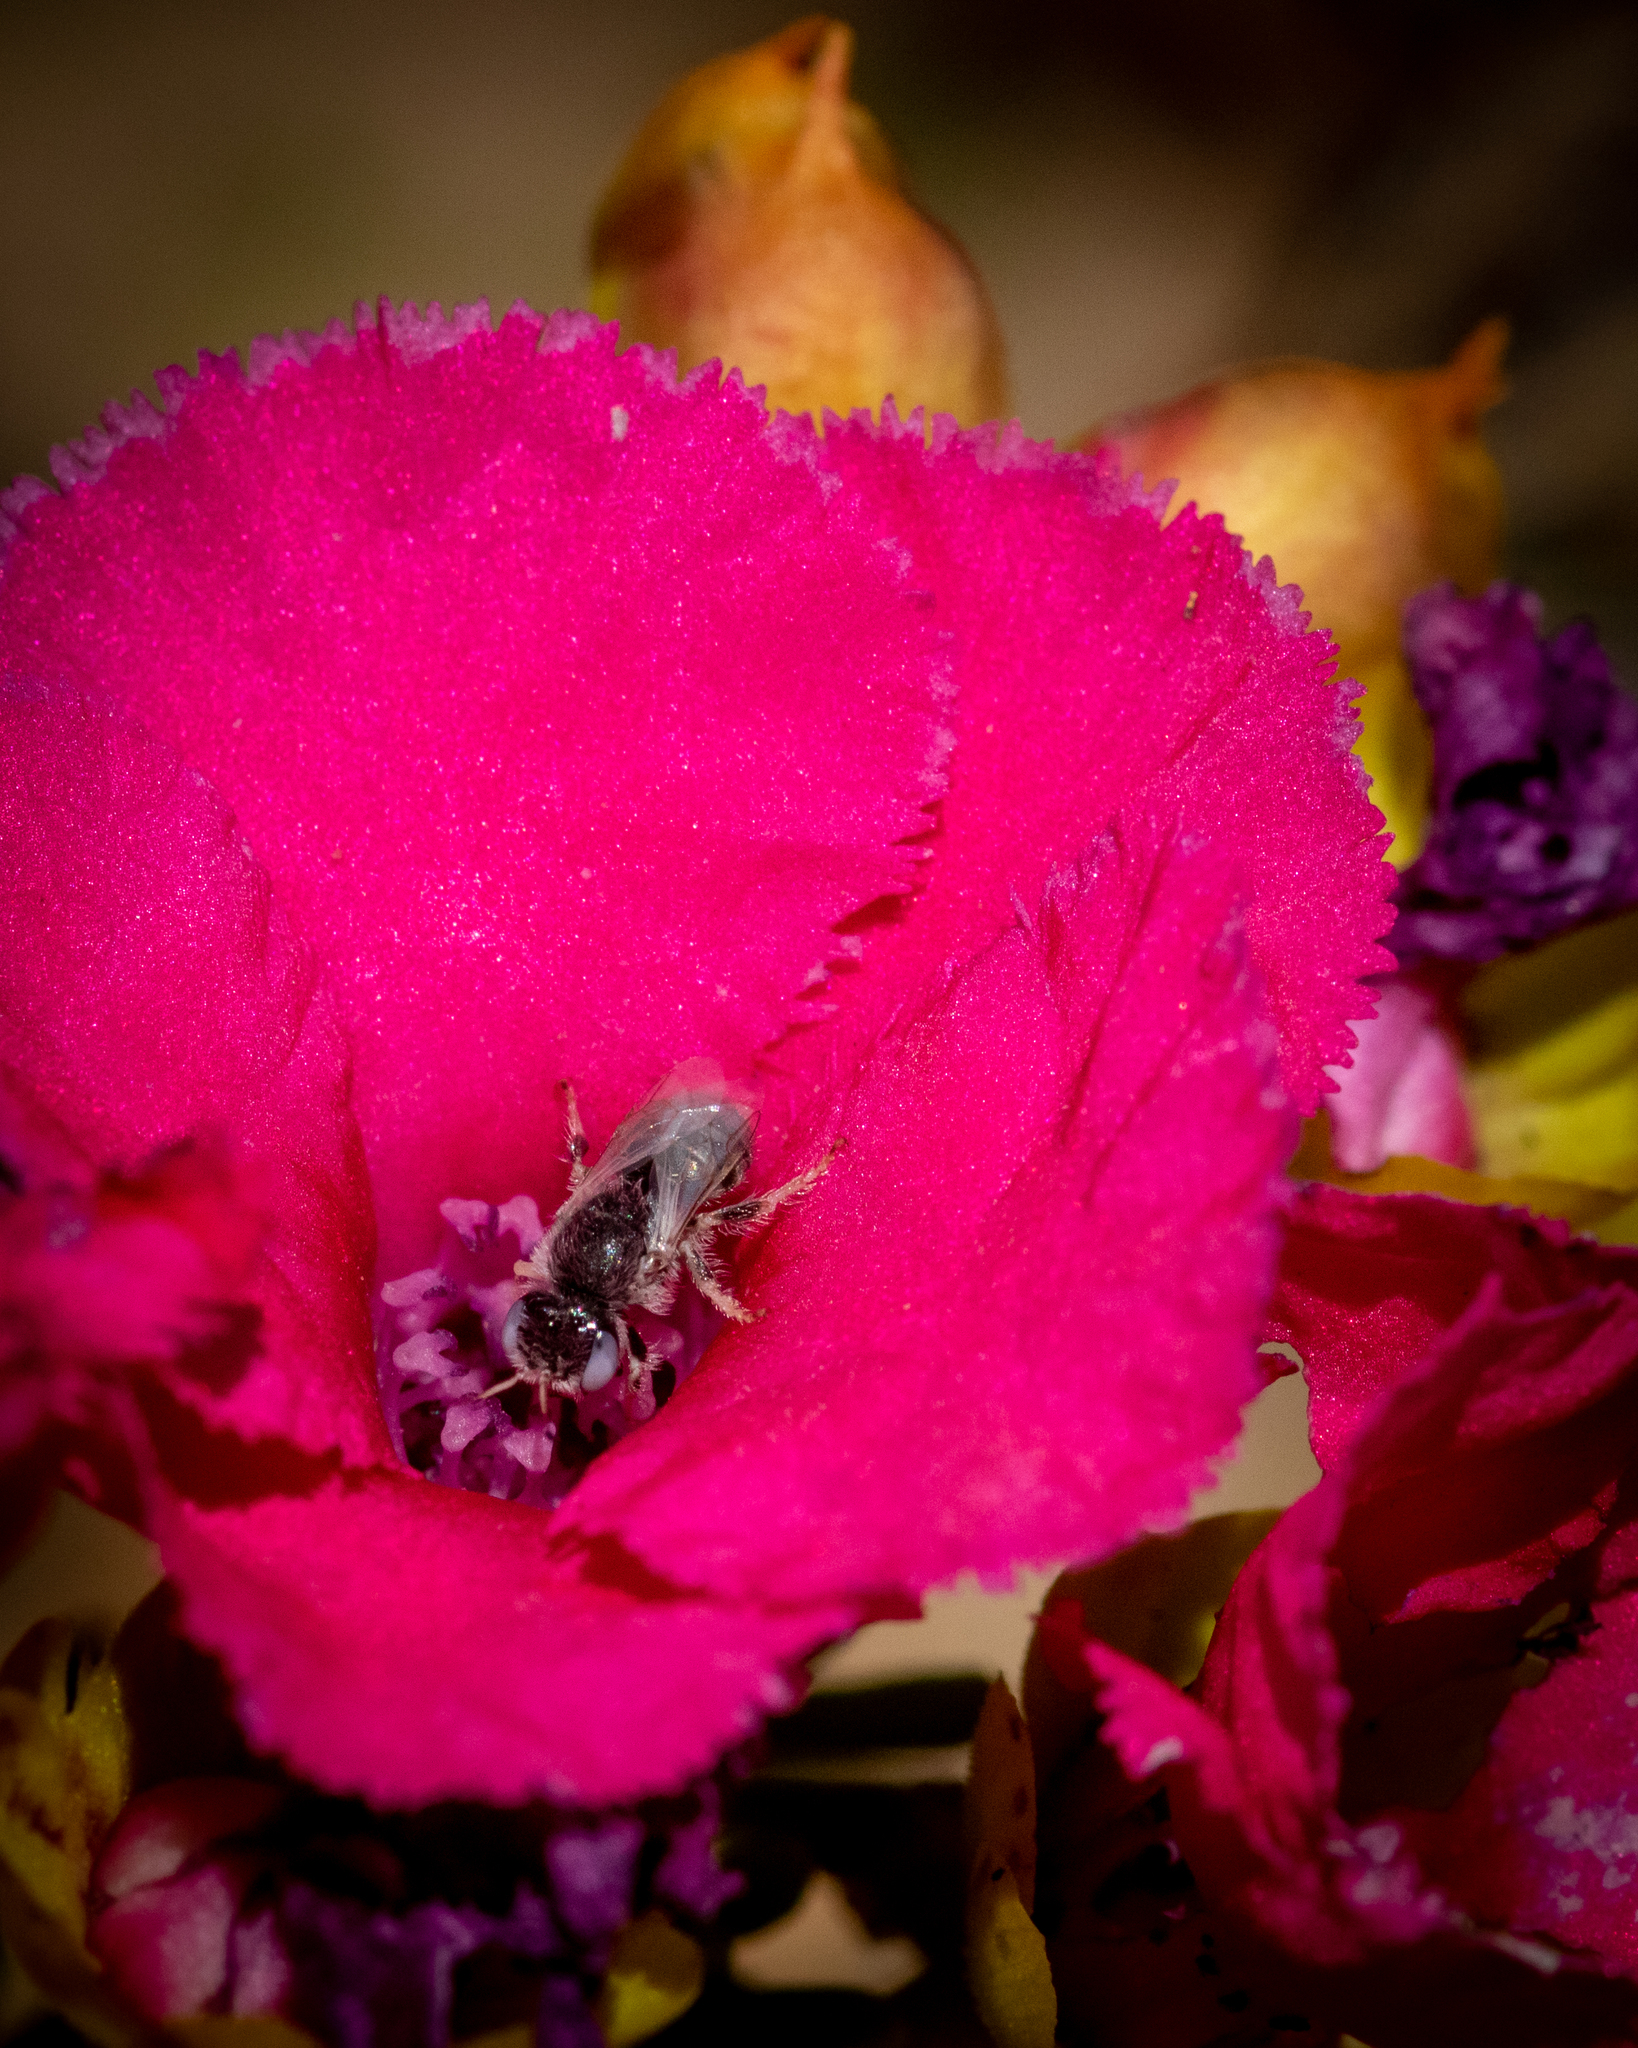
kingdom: Animalia
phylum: Arthropoda
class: Insecta
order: Hymenoptera
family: Colletidae
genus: Euhesma
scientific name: Euhesma semaphore
